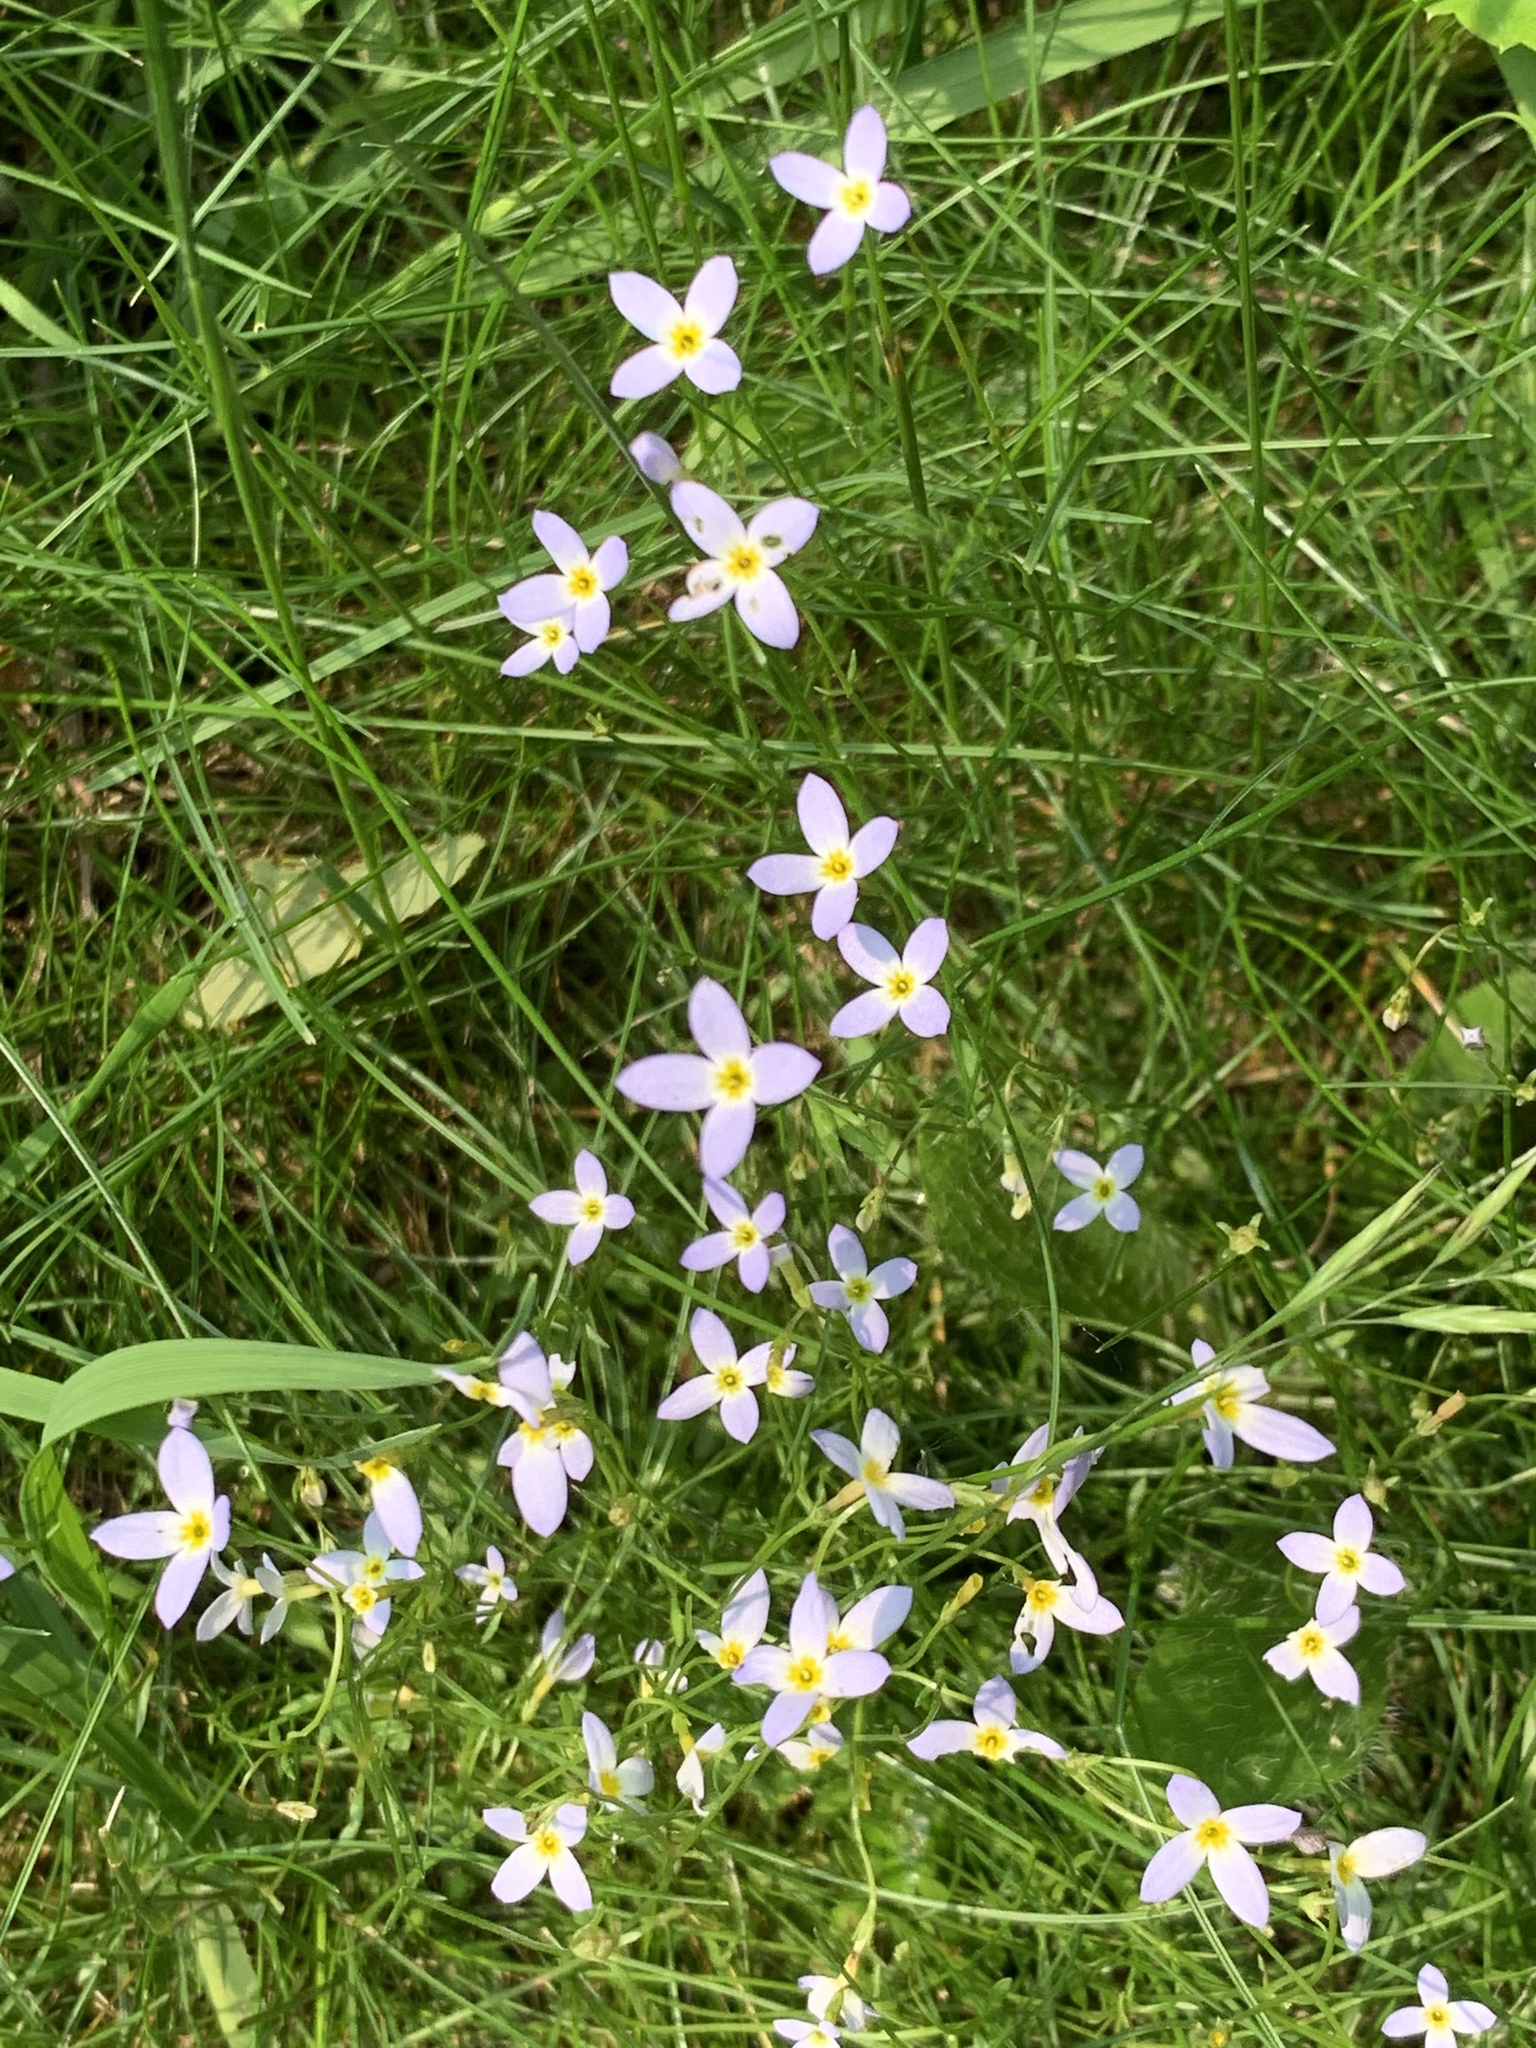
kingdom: Plantae
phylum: Tracheophyta
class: Magnoliopsida
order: Gentianales
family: Rubiaceae
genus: Houstonia
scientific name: Houstonia caerulea
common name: Bluets
